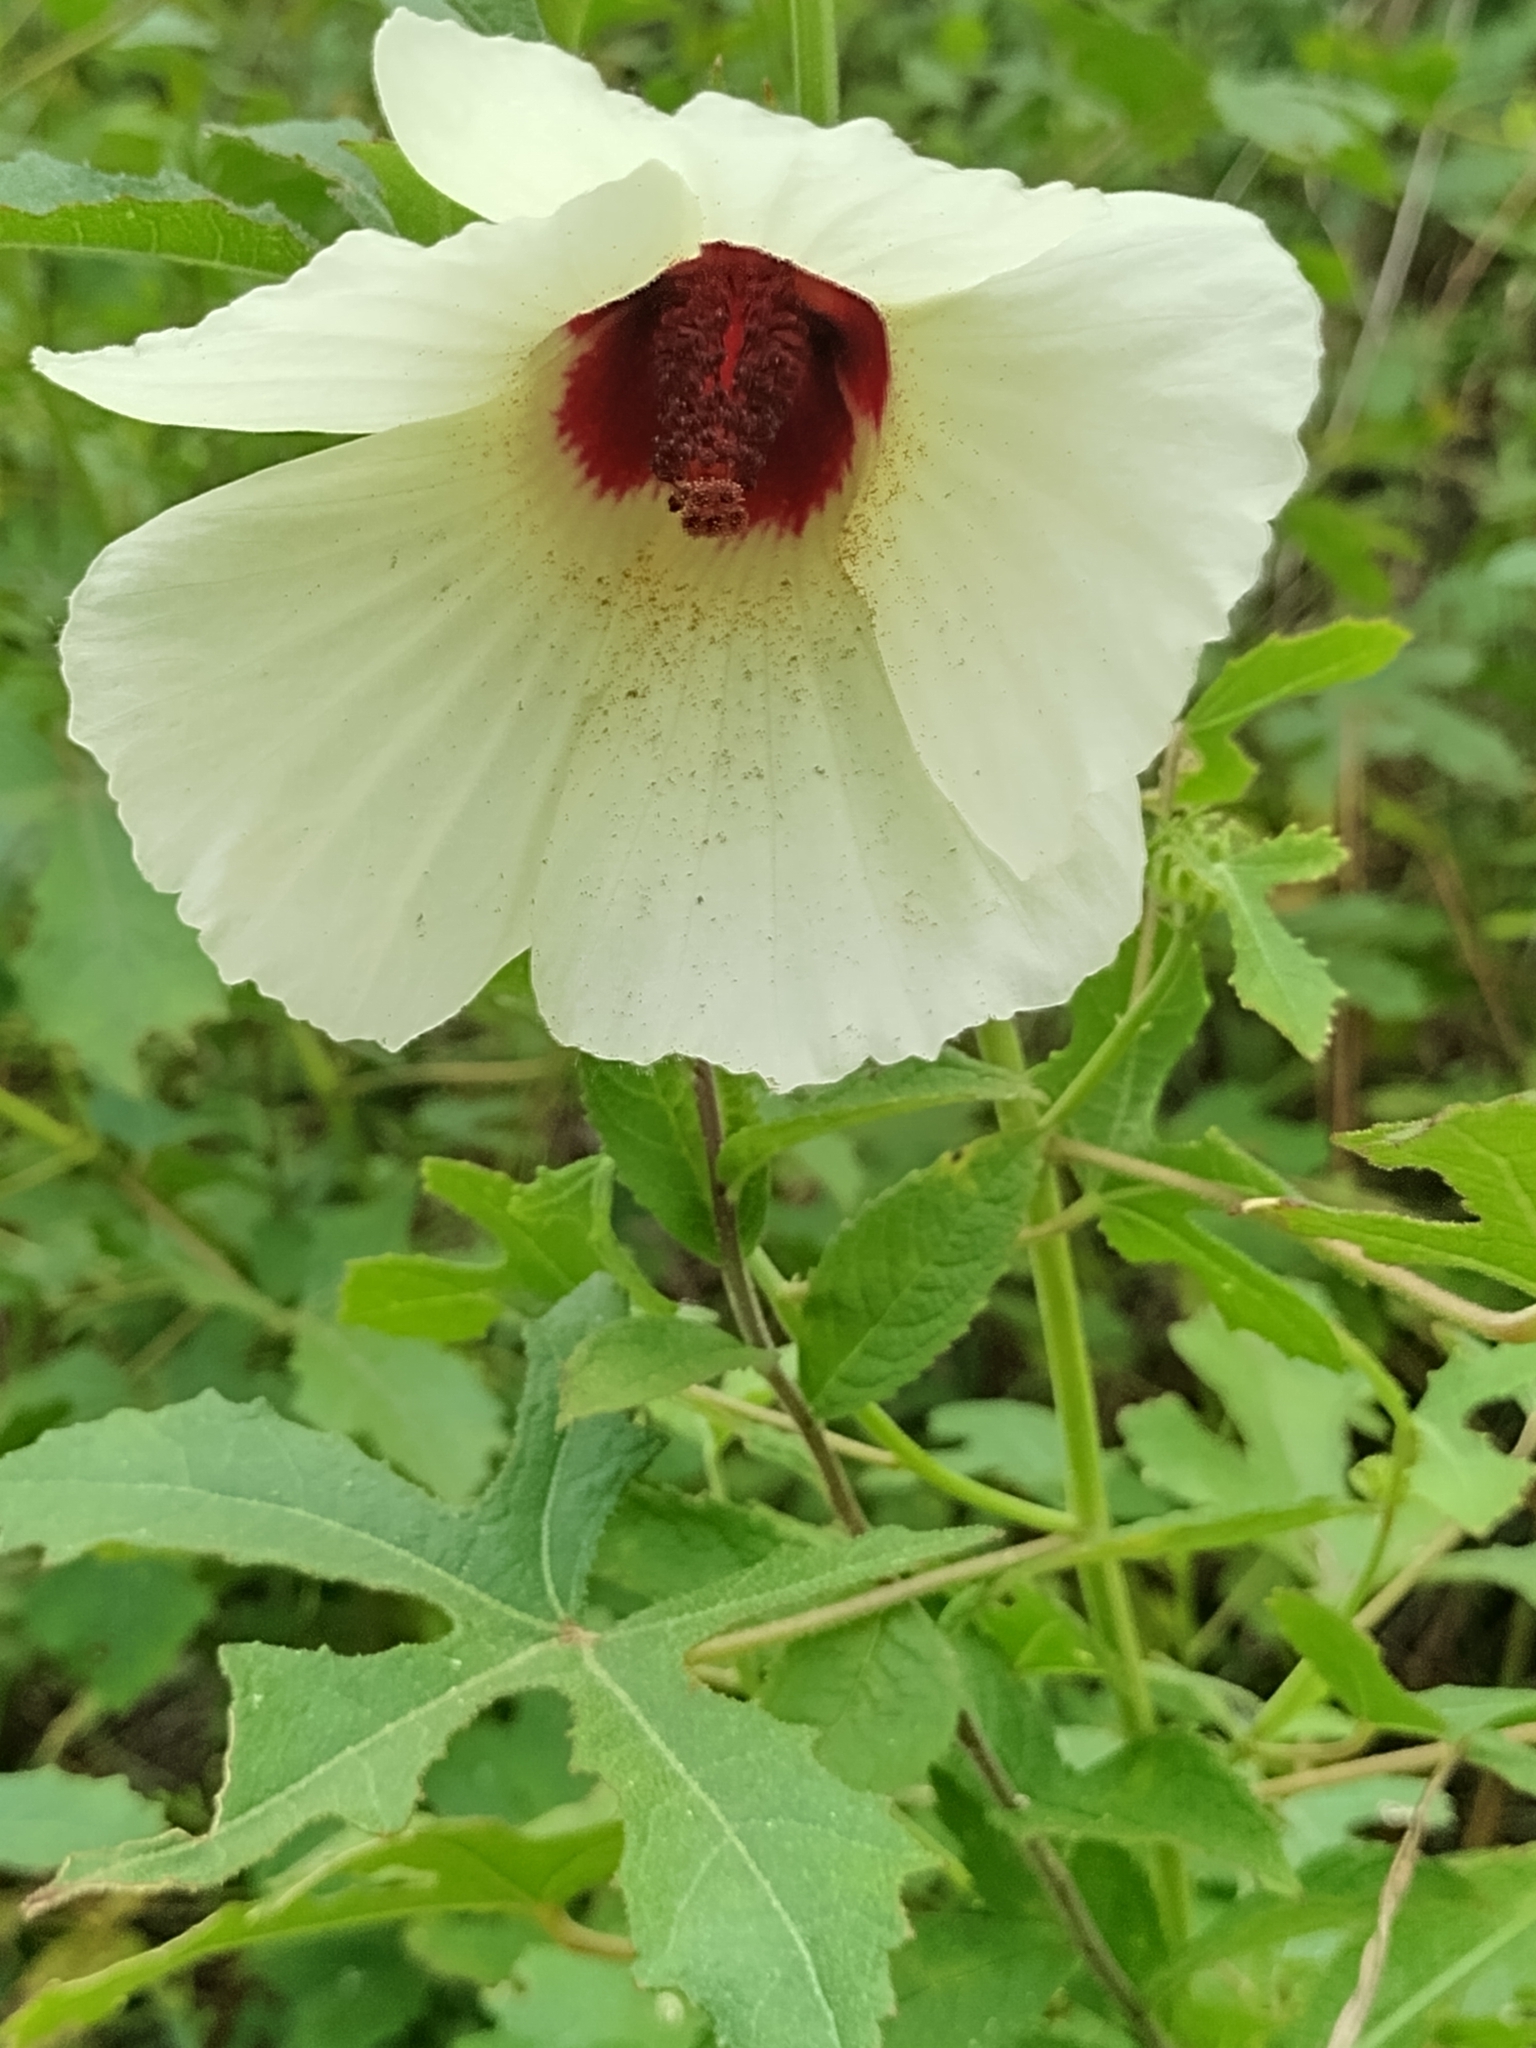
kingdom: Plantae
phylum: Tracheophyta
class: Magnoliopsida
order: Malvales
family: Malvaceae
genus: Hibiscus
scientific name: Hibiscus aculeatus
